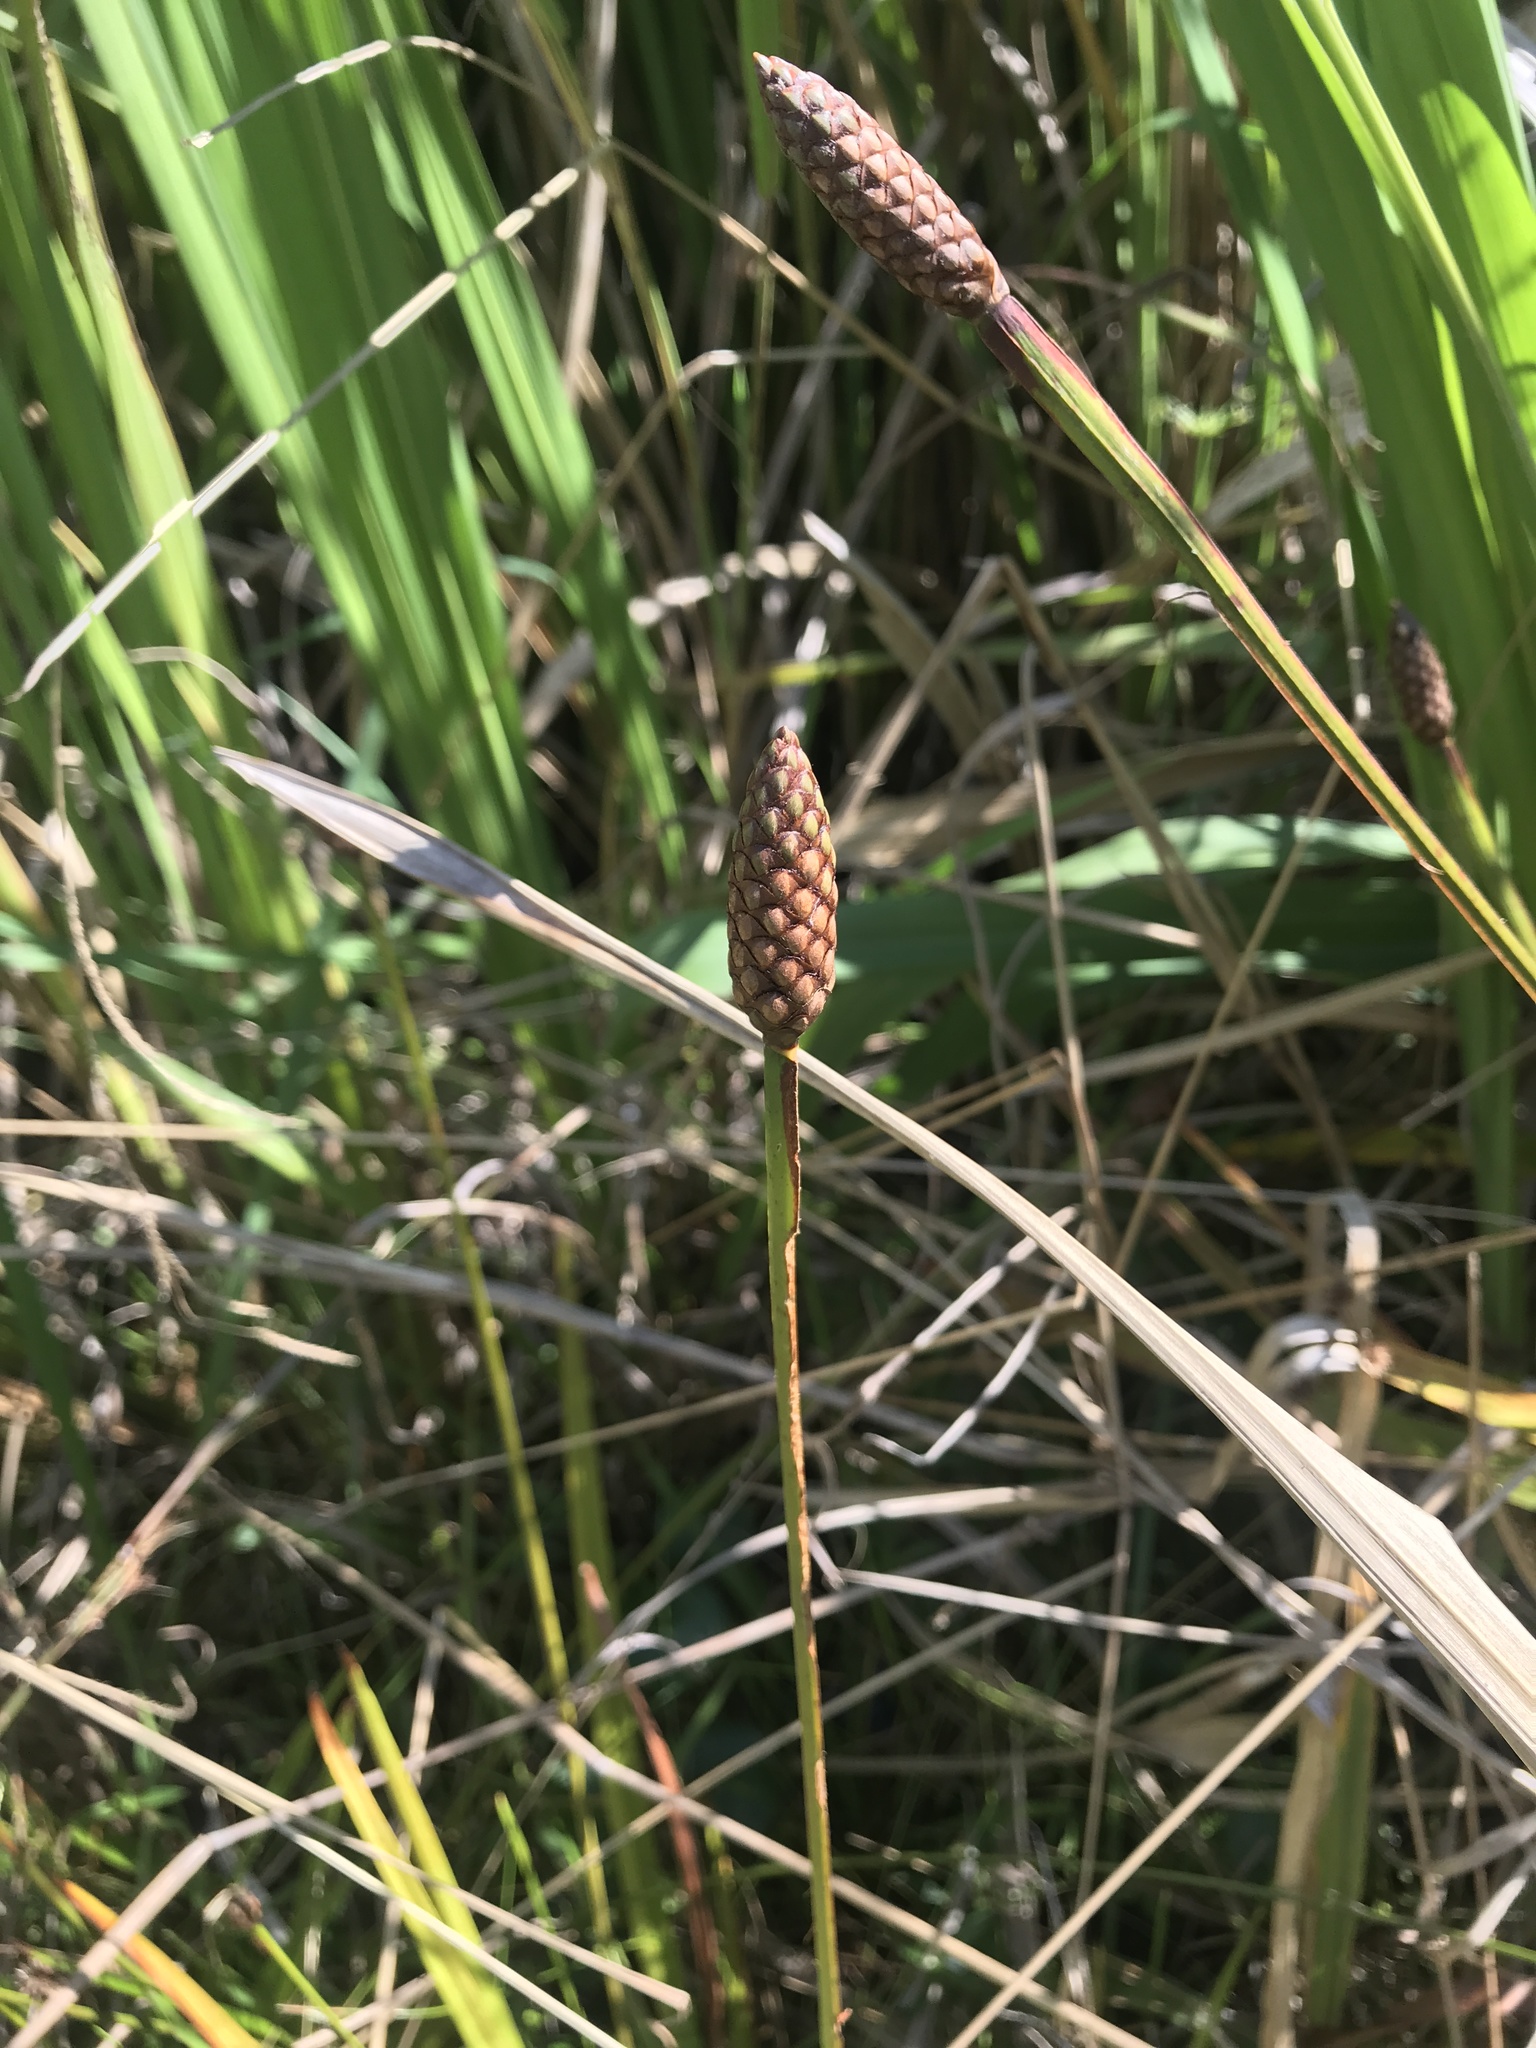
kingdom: Plantae
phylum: Tracheophyta
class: Liliopsida
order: Poales
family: Xyridaceae
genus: Xyris
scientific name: Xyris laxifolia
